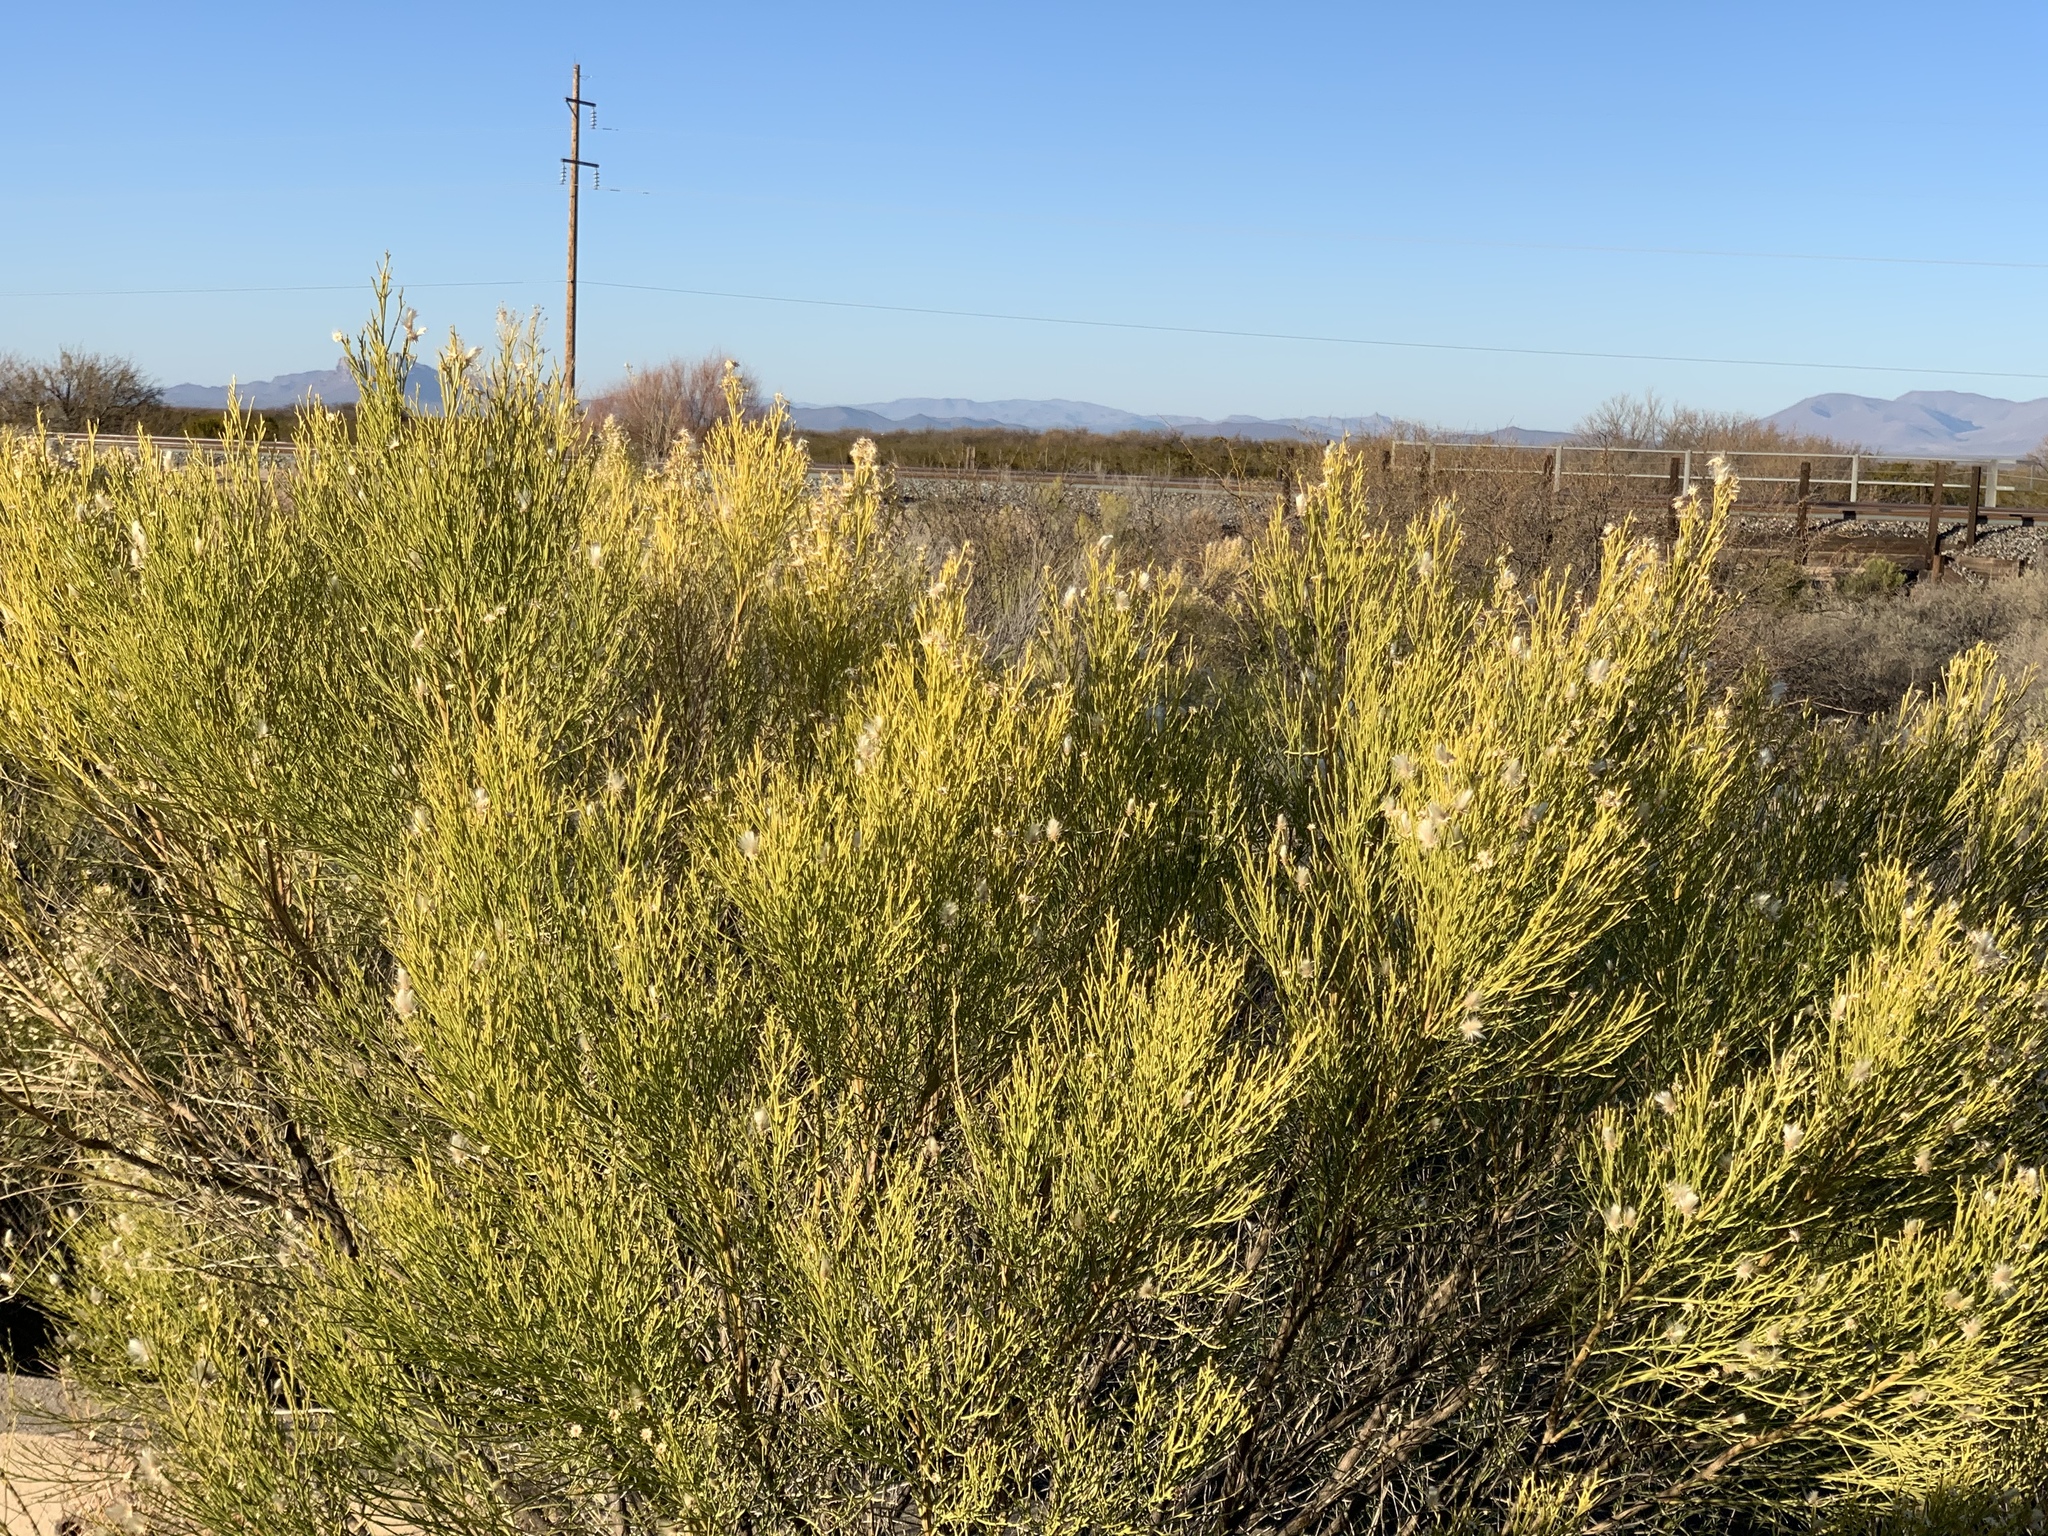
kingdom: Plantae
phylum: Tracheophyta
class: Magnoliopsida
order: Asterales
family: Asteraceae
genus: Baccharis
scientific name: Baccharis sarothroides
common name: Desert-broom
